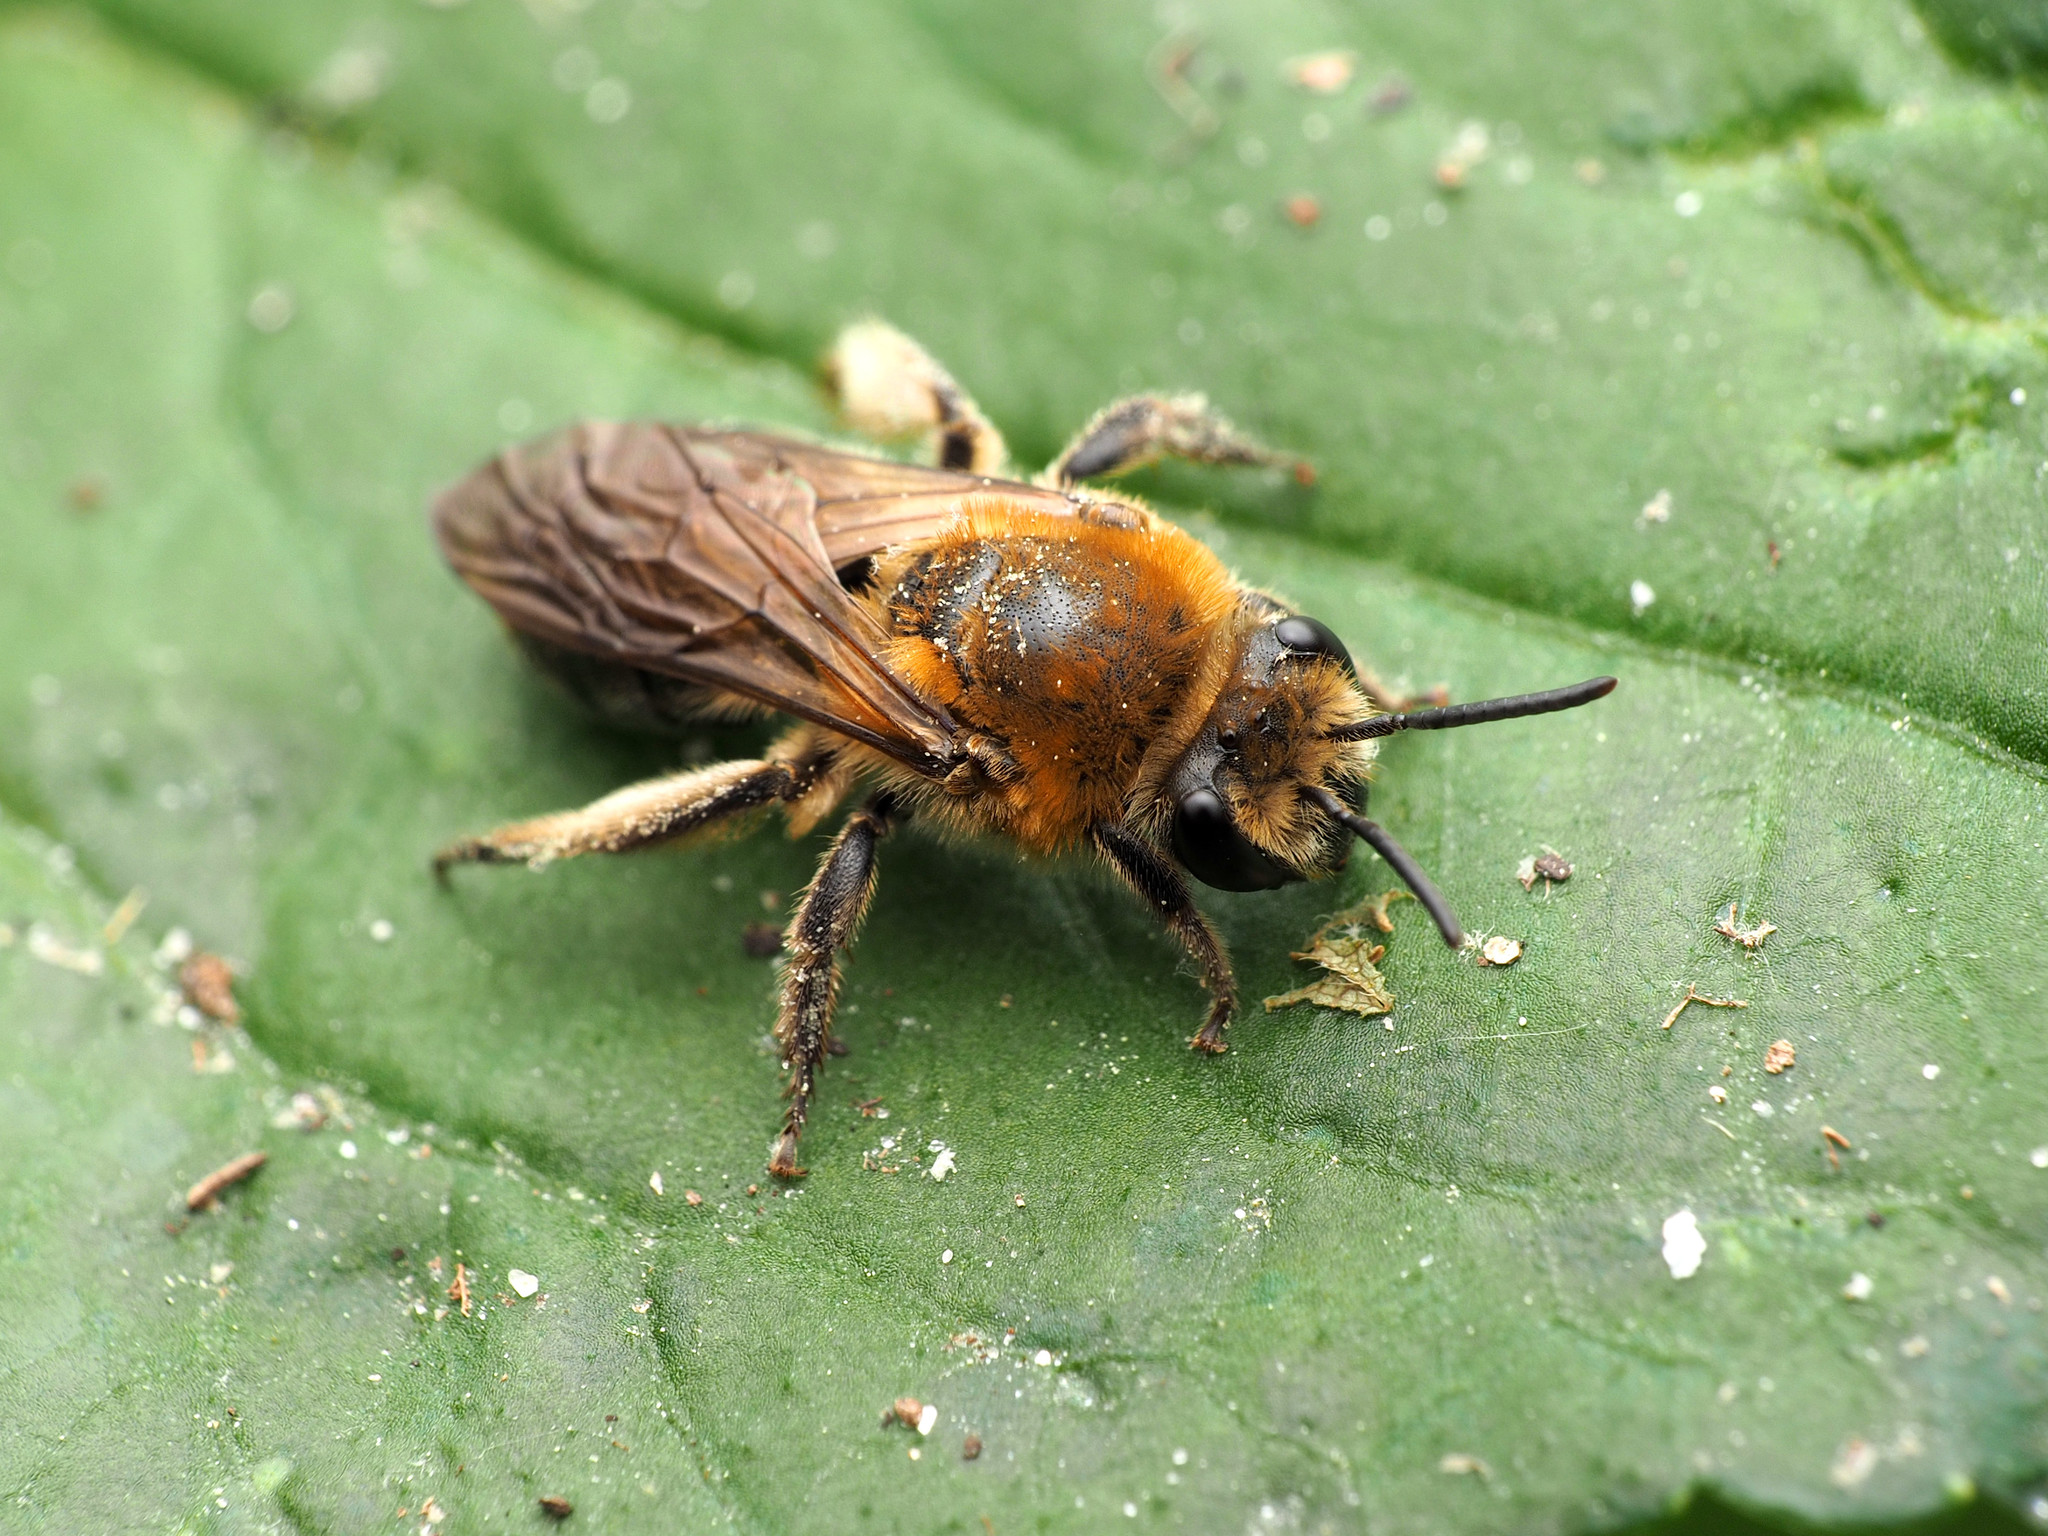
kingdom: Animalia
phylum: Arthropoda
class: Insecta
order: Hymenoptera
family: Colletidae
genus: Colletes
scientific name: Colletes thoracicus
